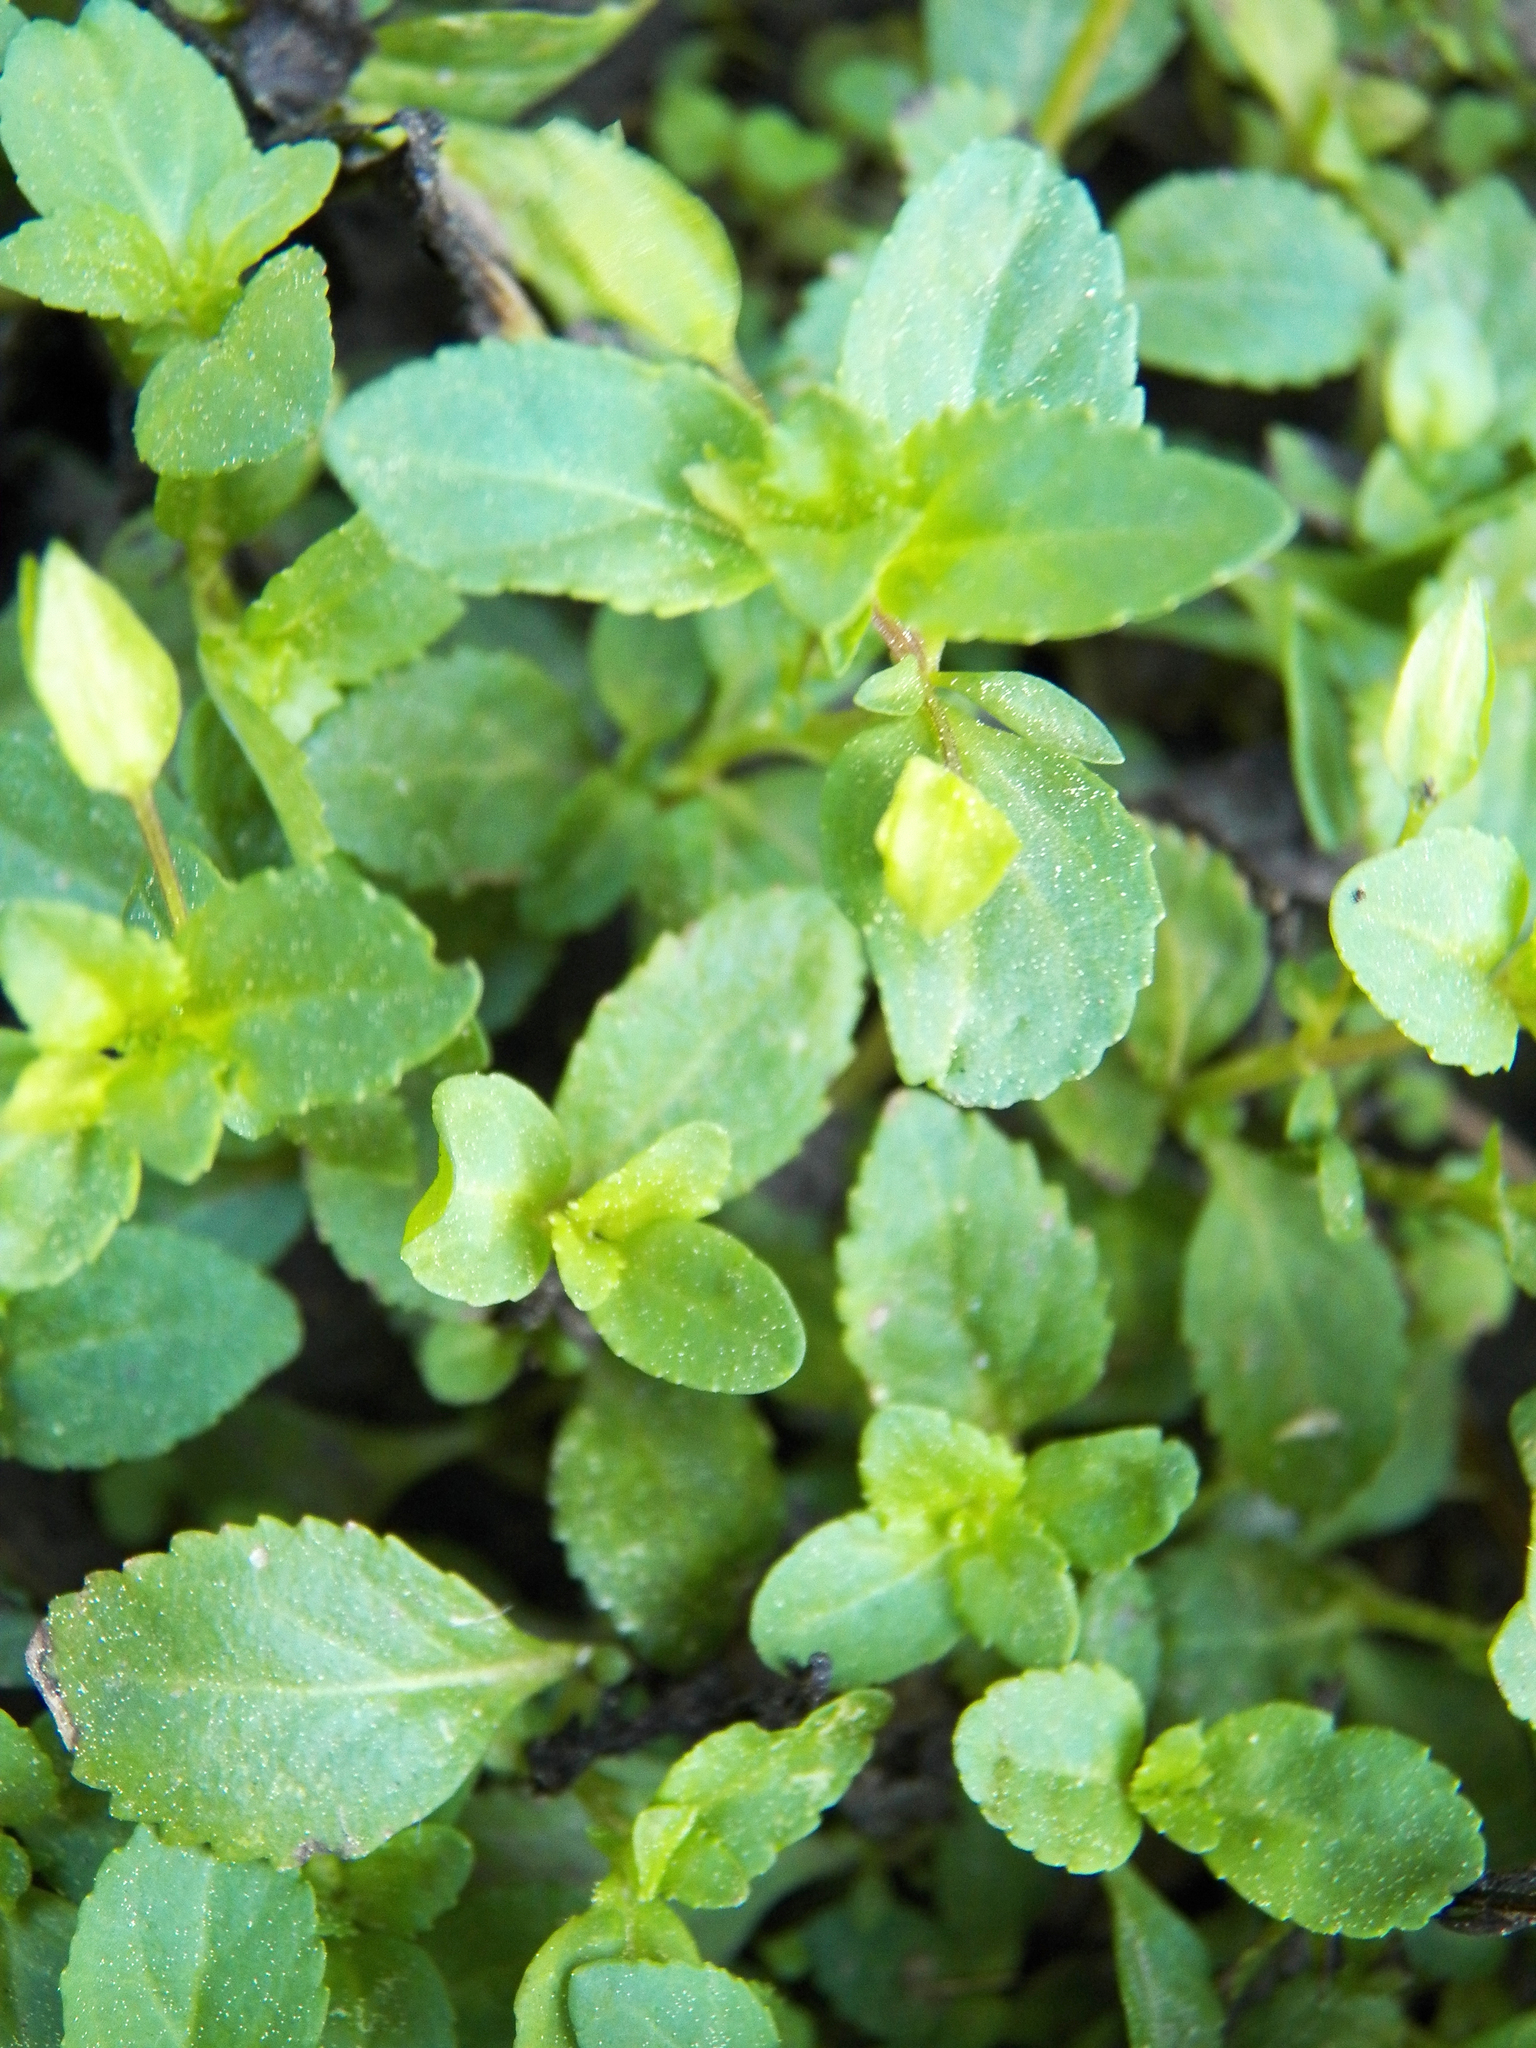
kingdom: Plantae
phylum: Tracheophyta
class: Magnoliopsida
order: Lamiales
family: Plantaginaceae
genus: Mecardonia
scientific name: Mecardonia procumbens
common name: Baby jump-up
